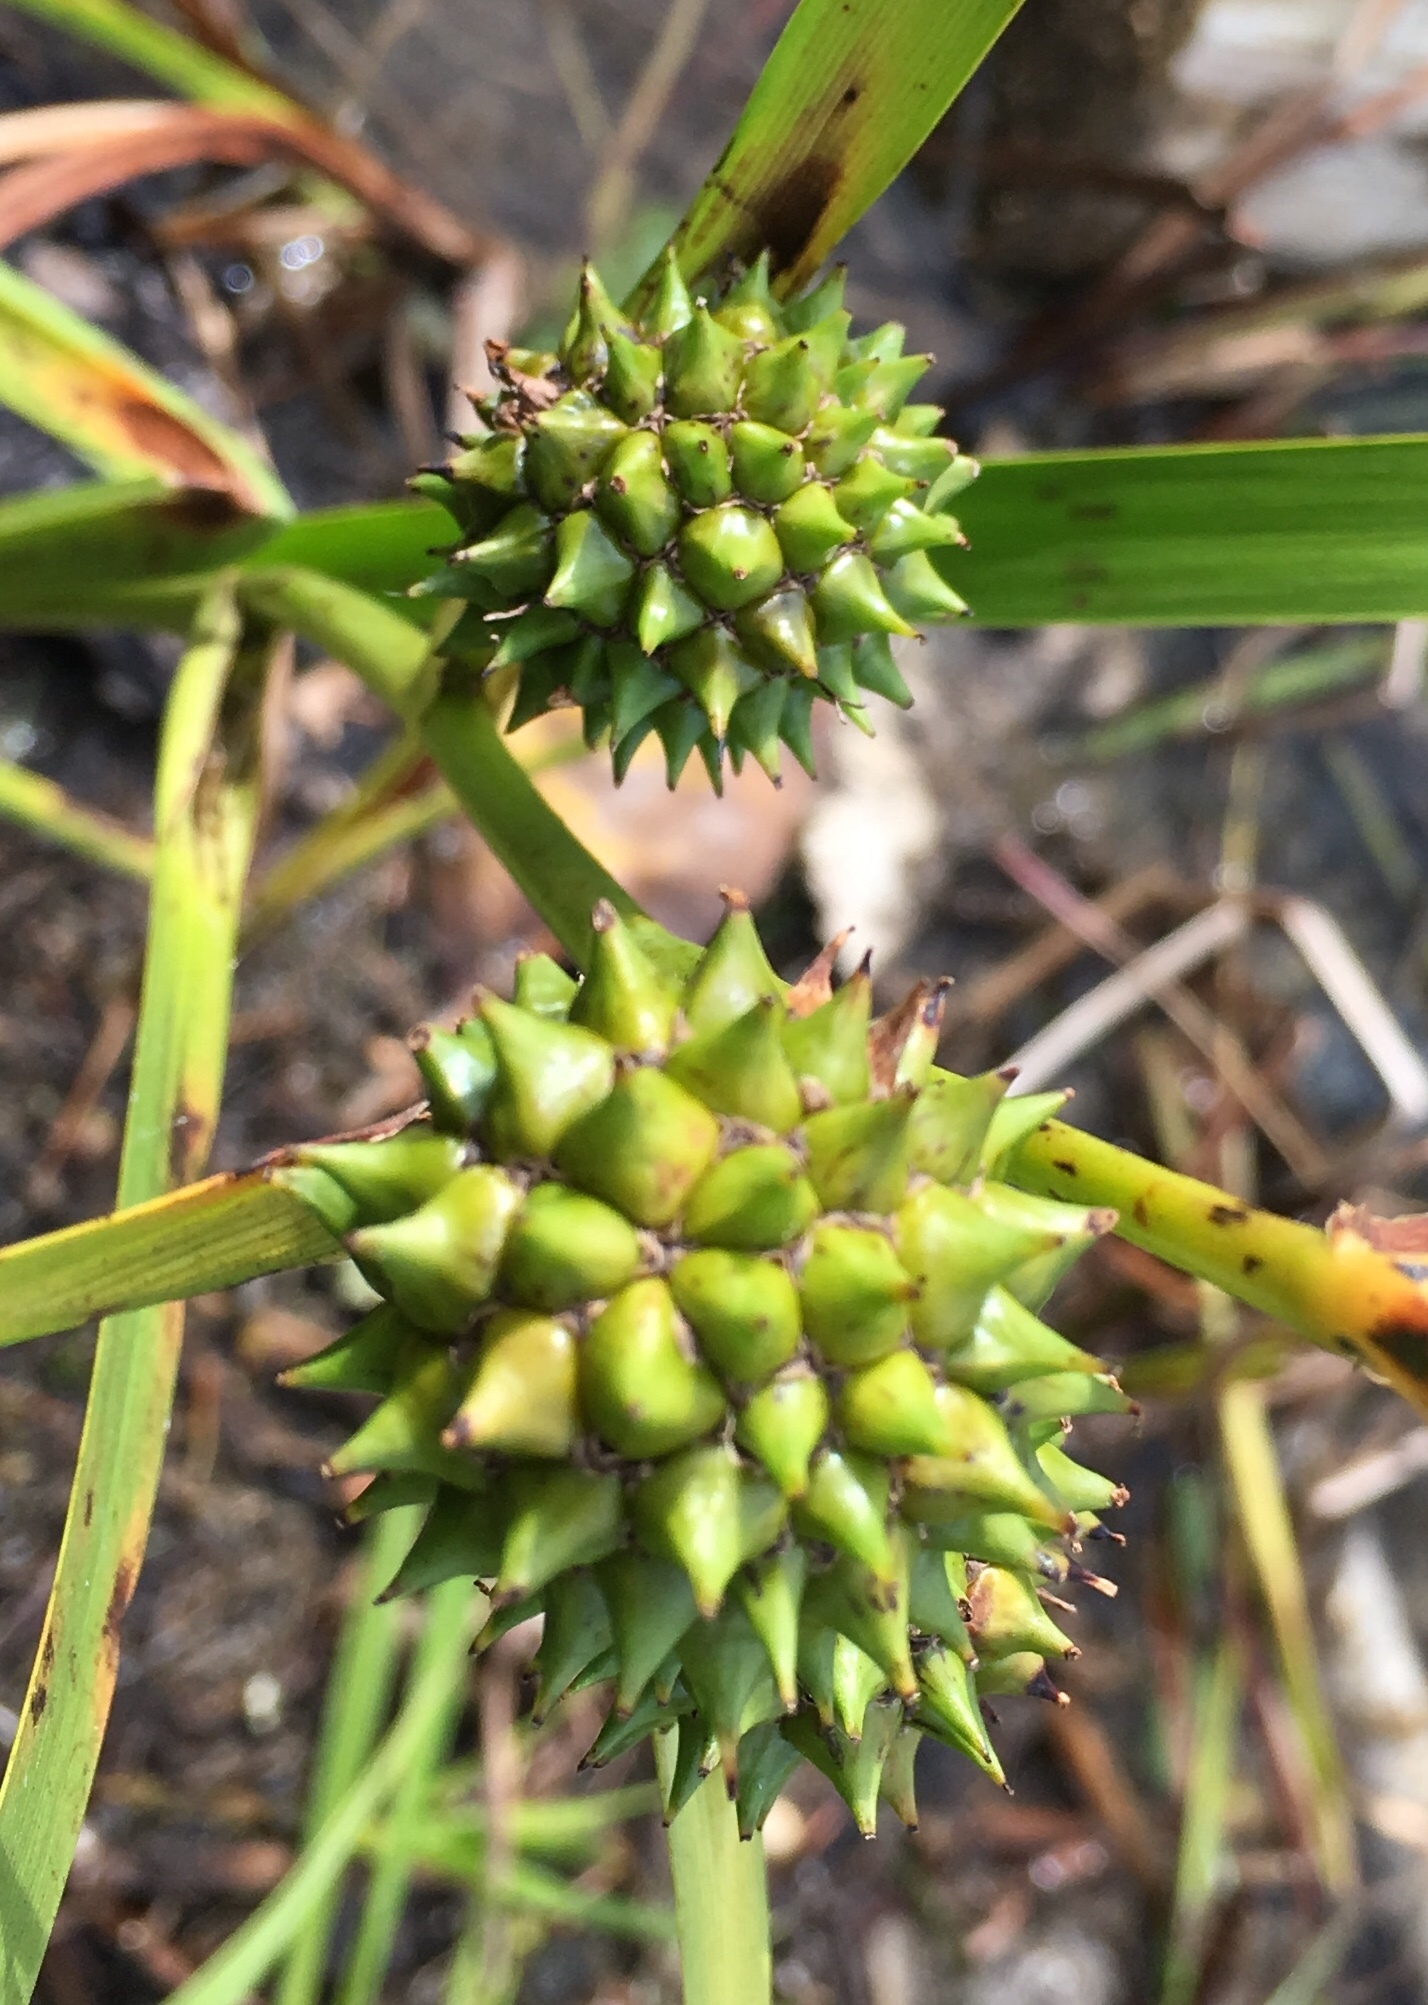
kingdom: Plantae
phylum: Tracheophyta
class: Liliopsida
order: Poales
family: Typhaceae
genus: Sparganium
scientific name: Sparganium eurycarpum
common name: Broad-fruited burreed
